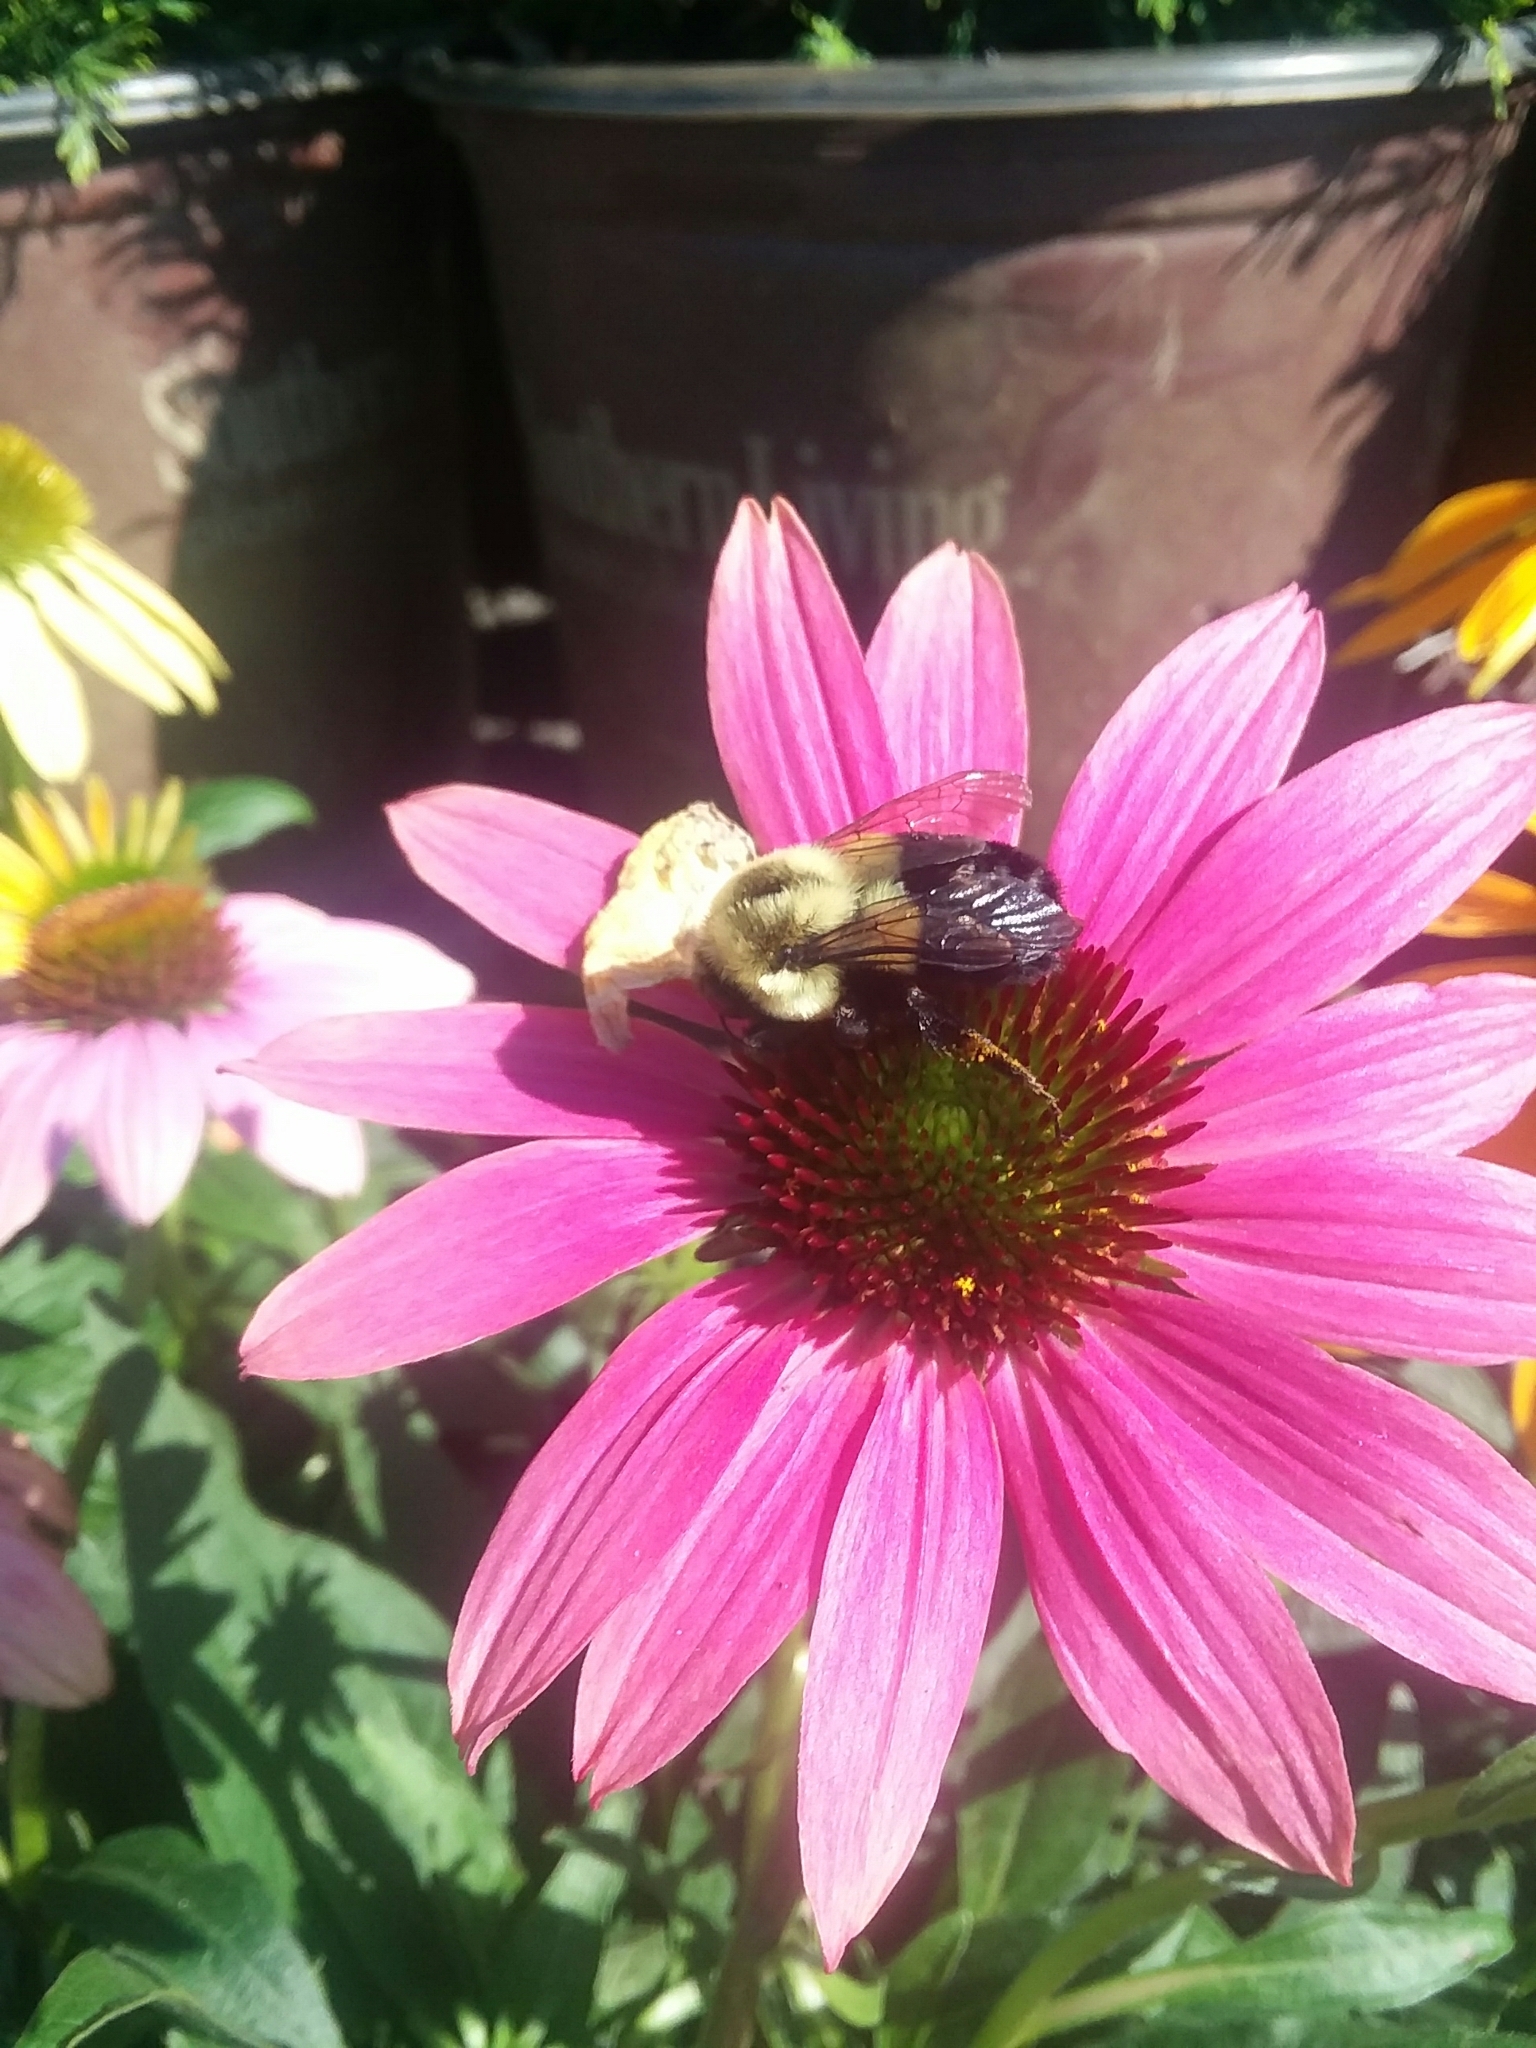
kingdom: Animalia
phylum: Arthropoda
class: Insecta
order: Hymenoptera
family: Apidae
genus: Bombus
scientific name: Bombus impatiens
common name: Common eastern bumble bee
